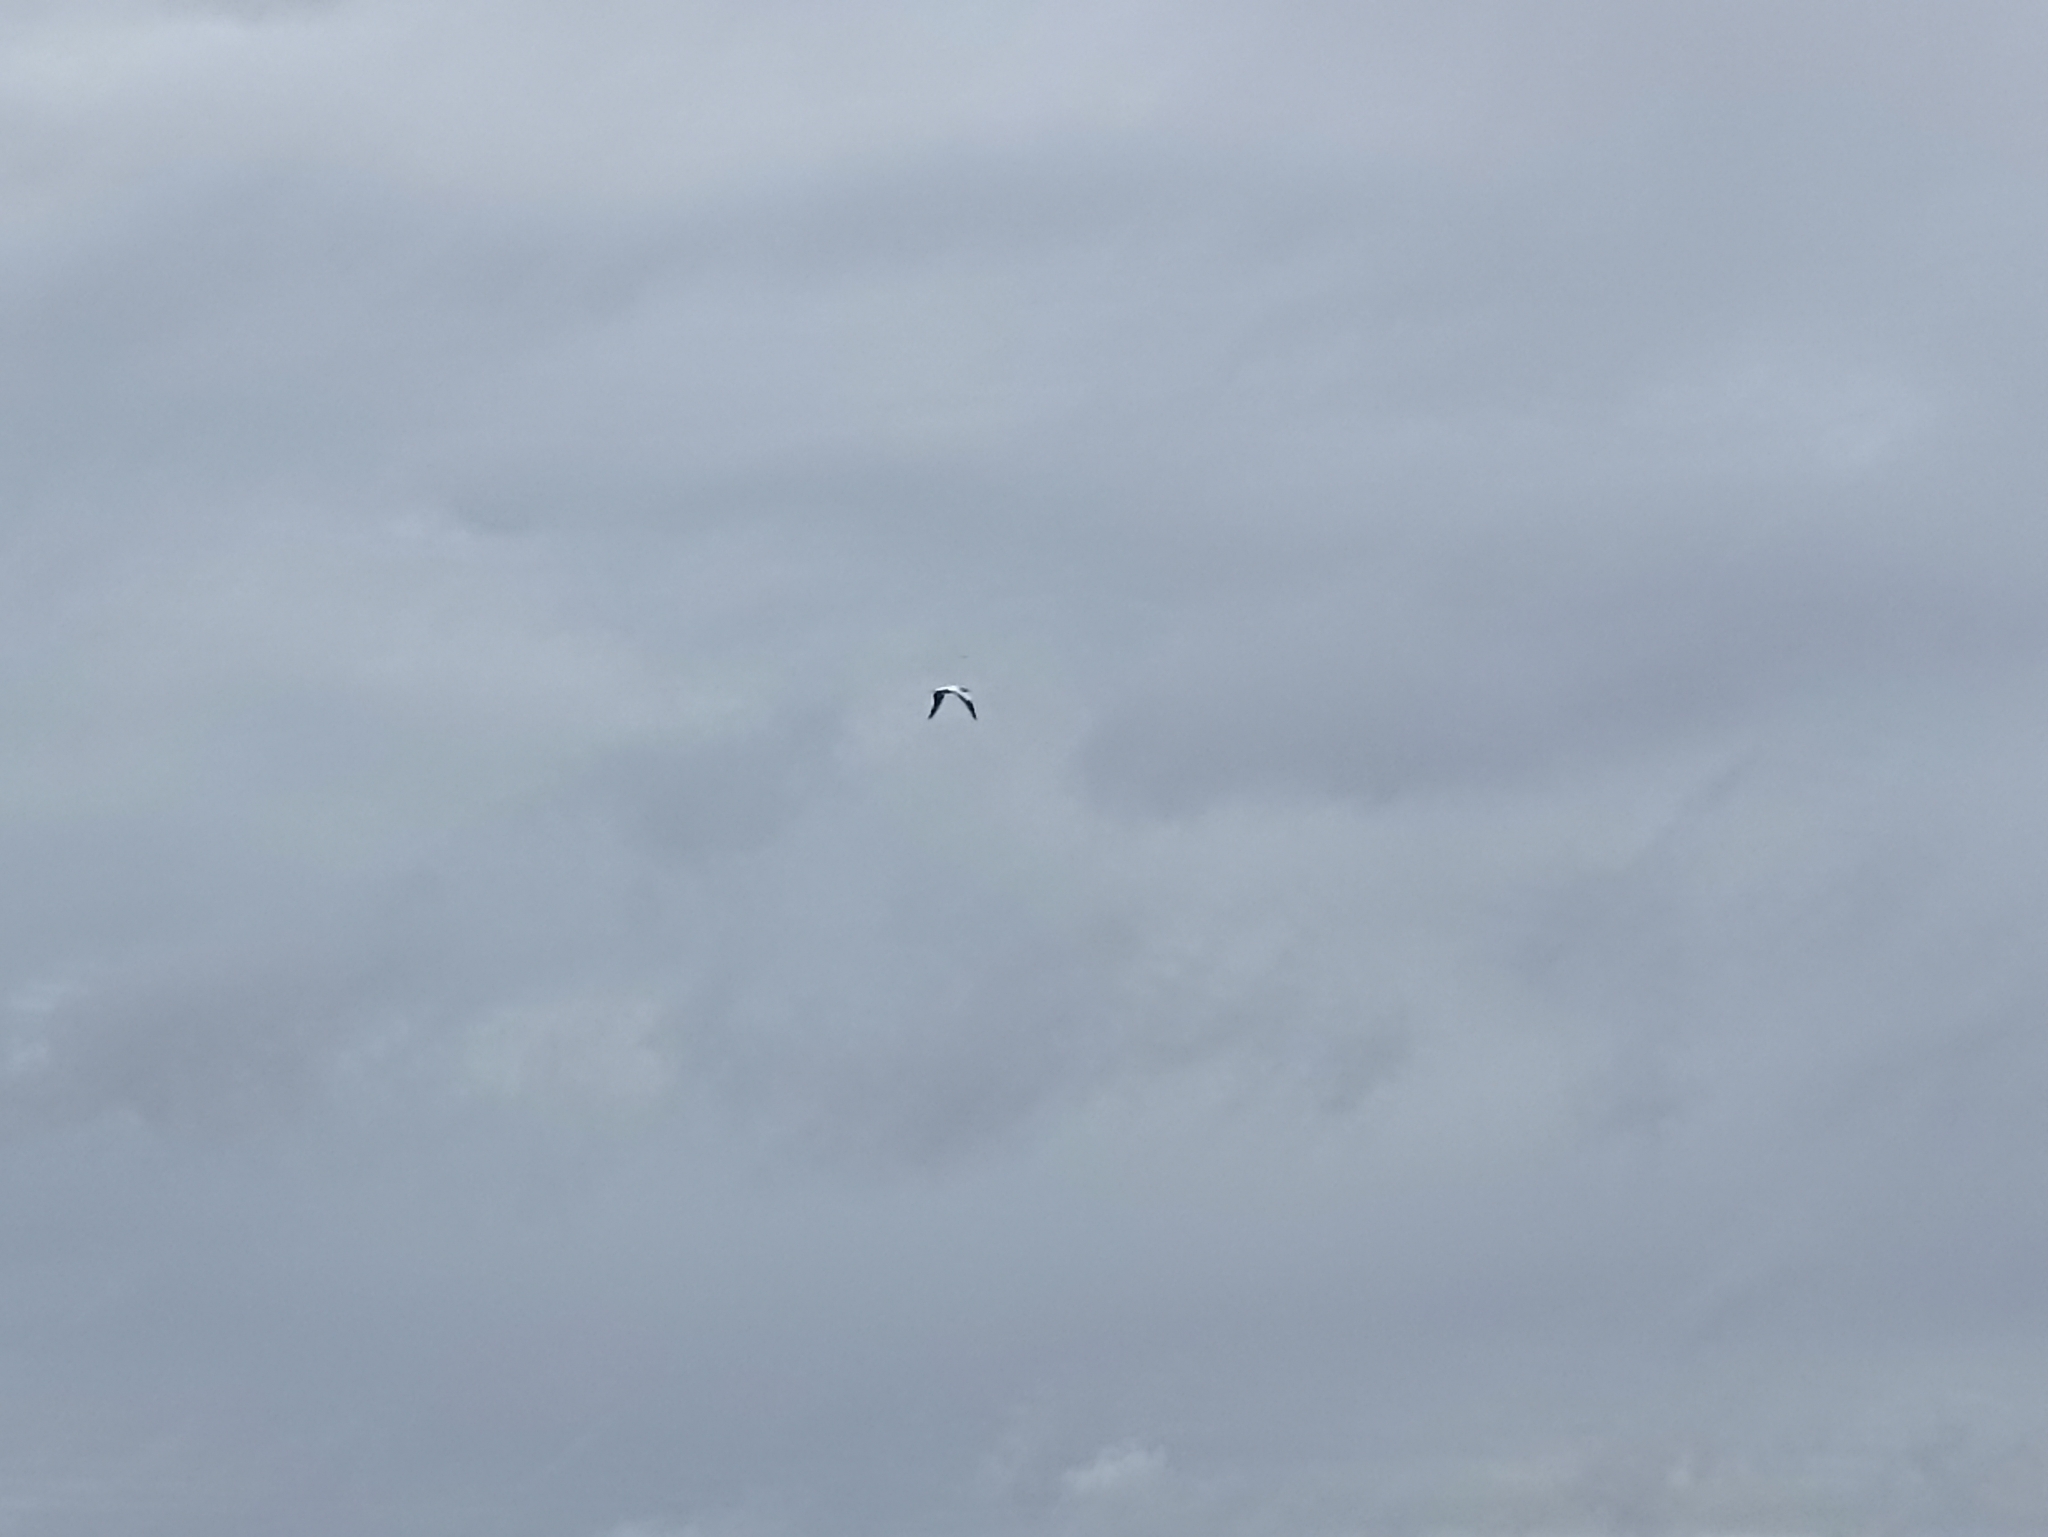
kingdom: Animalia
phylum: Chordata
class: Aves
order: Suliformes
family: Sulidae
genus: Morus
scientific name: Morus serrator
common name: Australasian gannet
